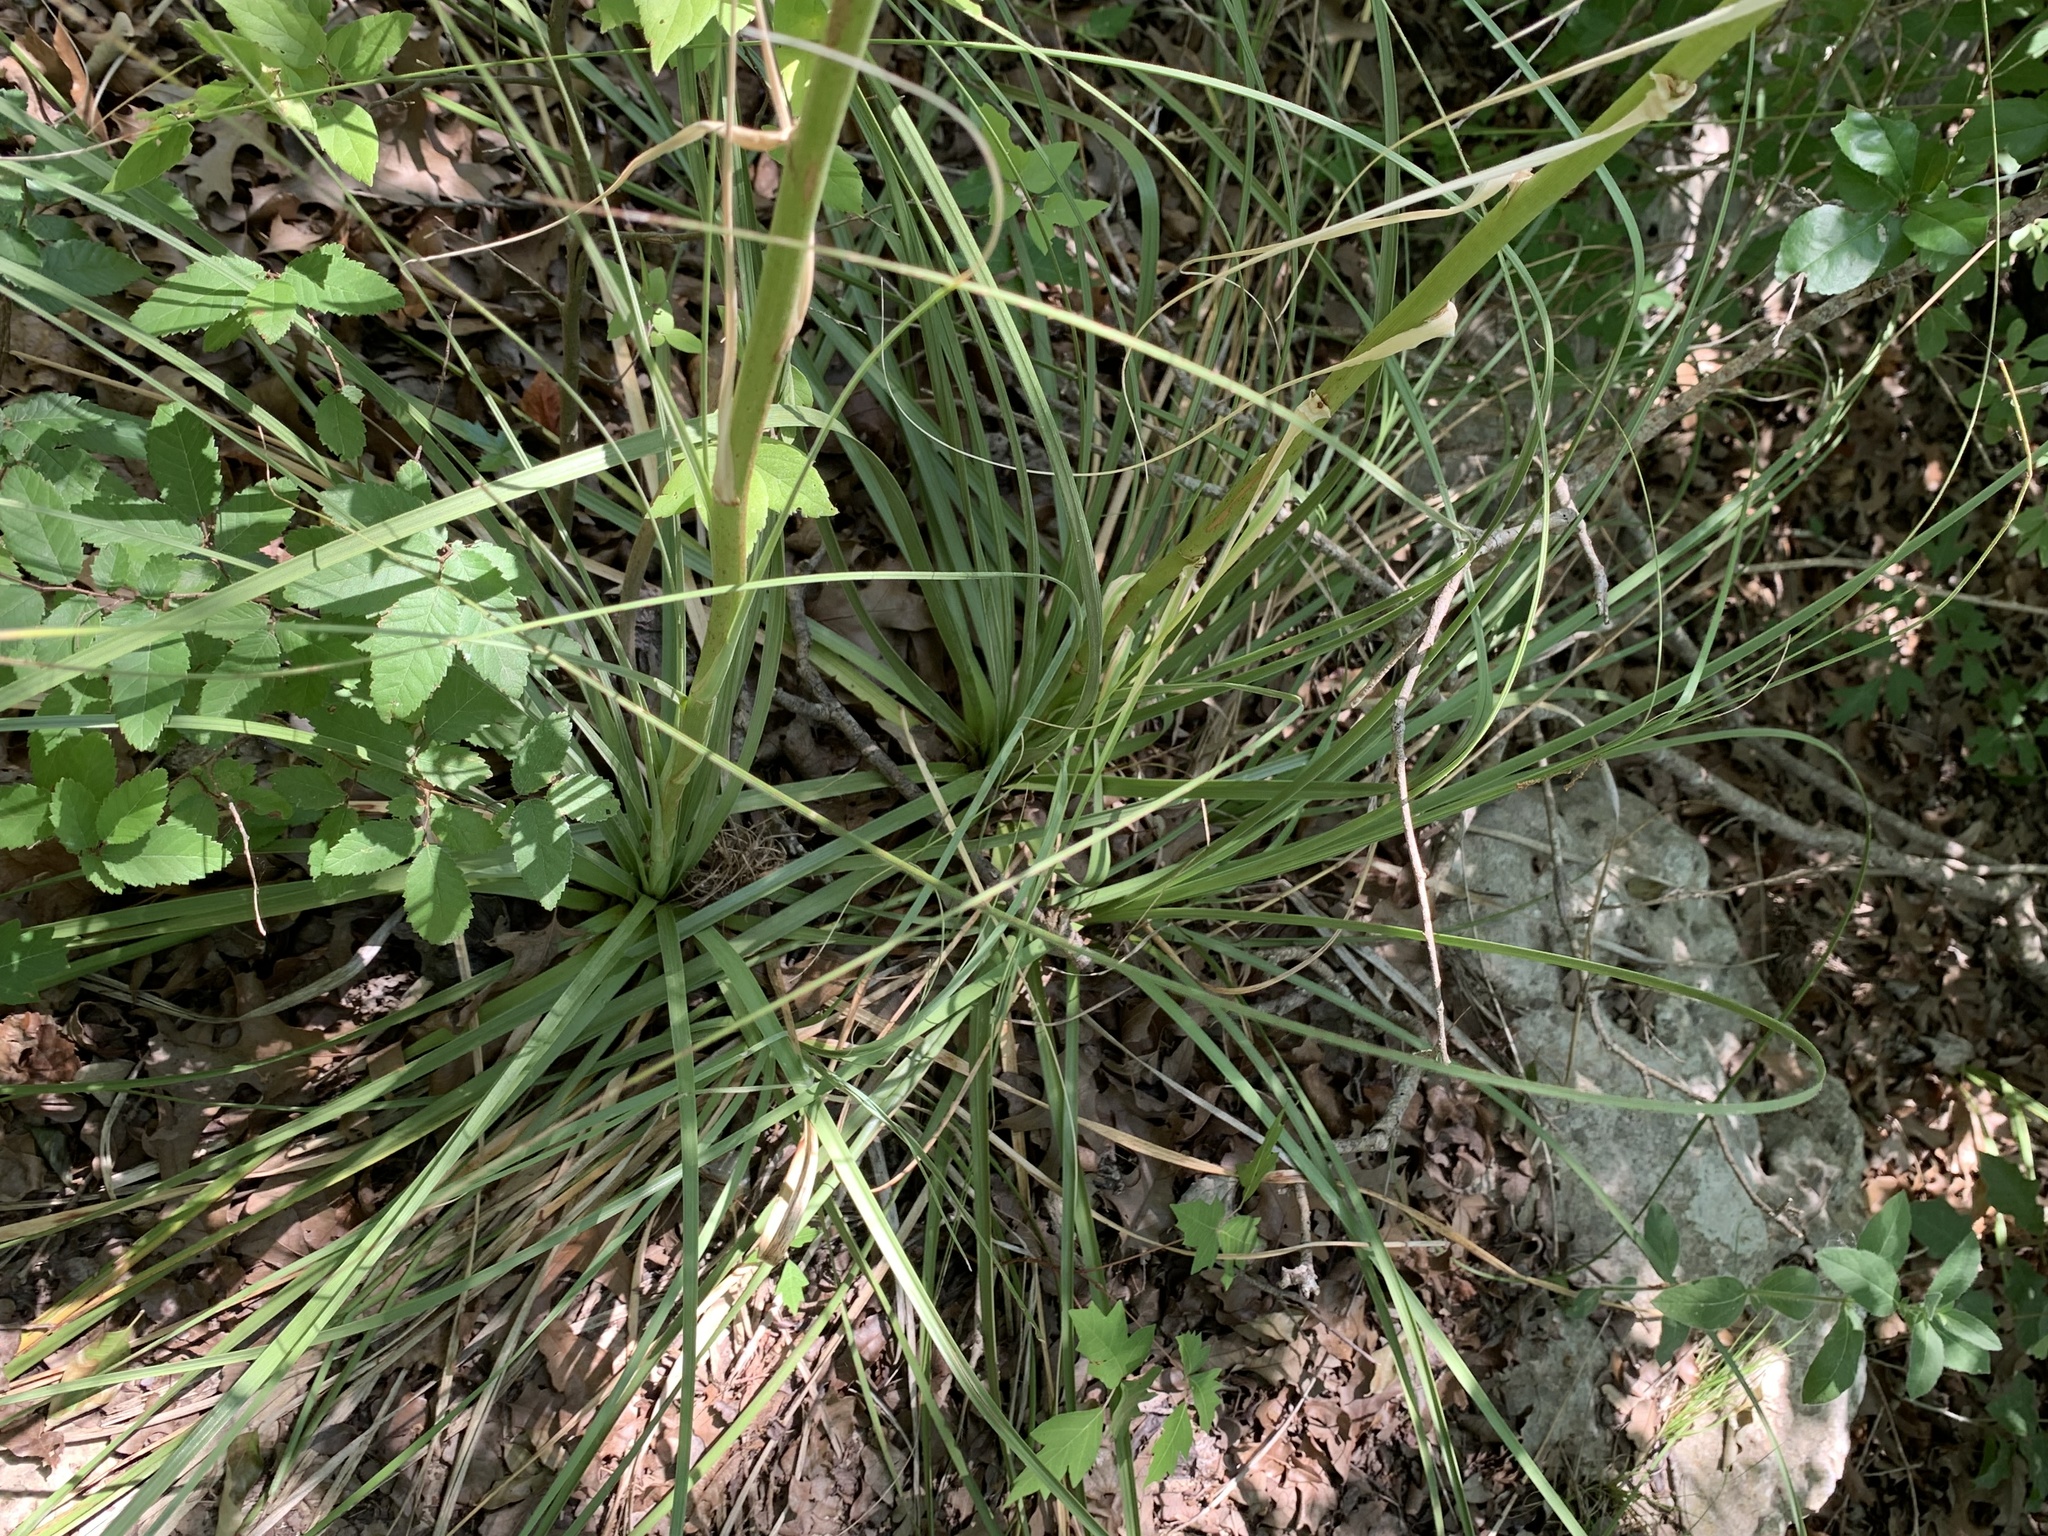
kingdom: Plantae
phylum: Tracheophyta
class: Liliopsida
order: Asparagales
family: Asparagaceae
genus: Nolina
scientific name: Nolina lindheimeriana
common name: Lindheimer's bear-grass
